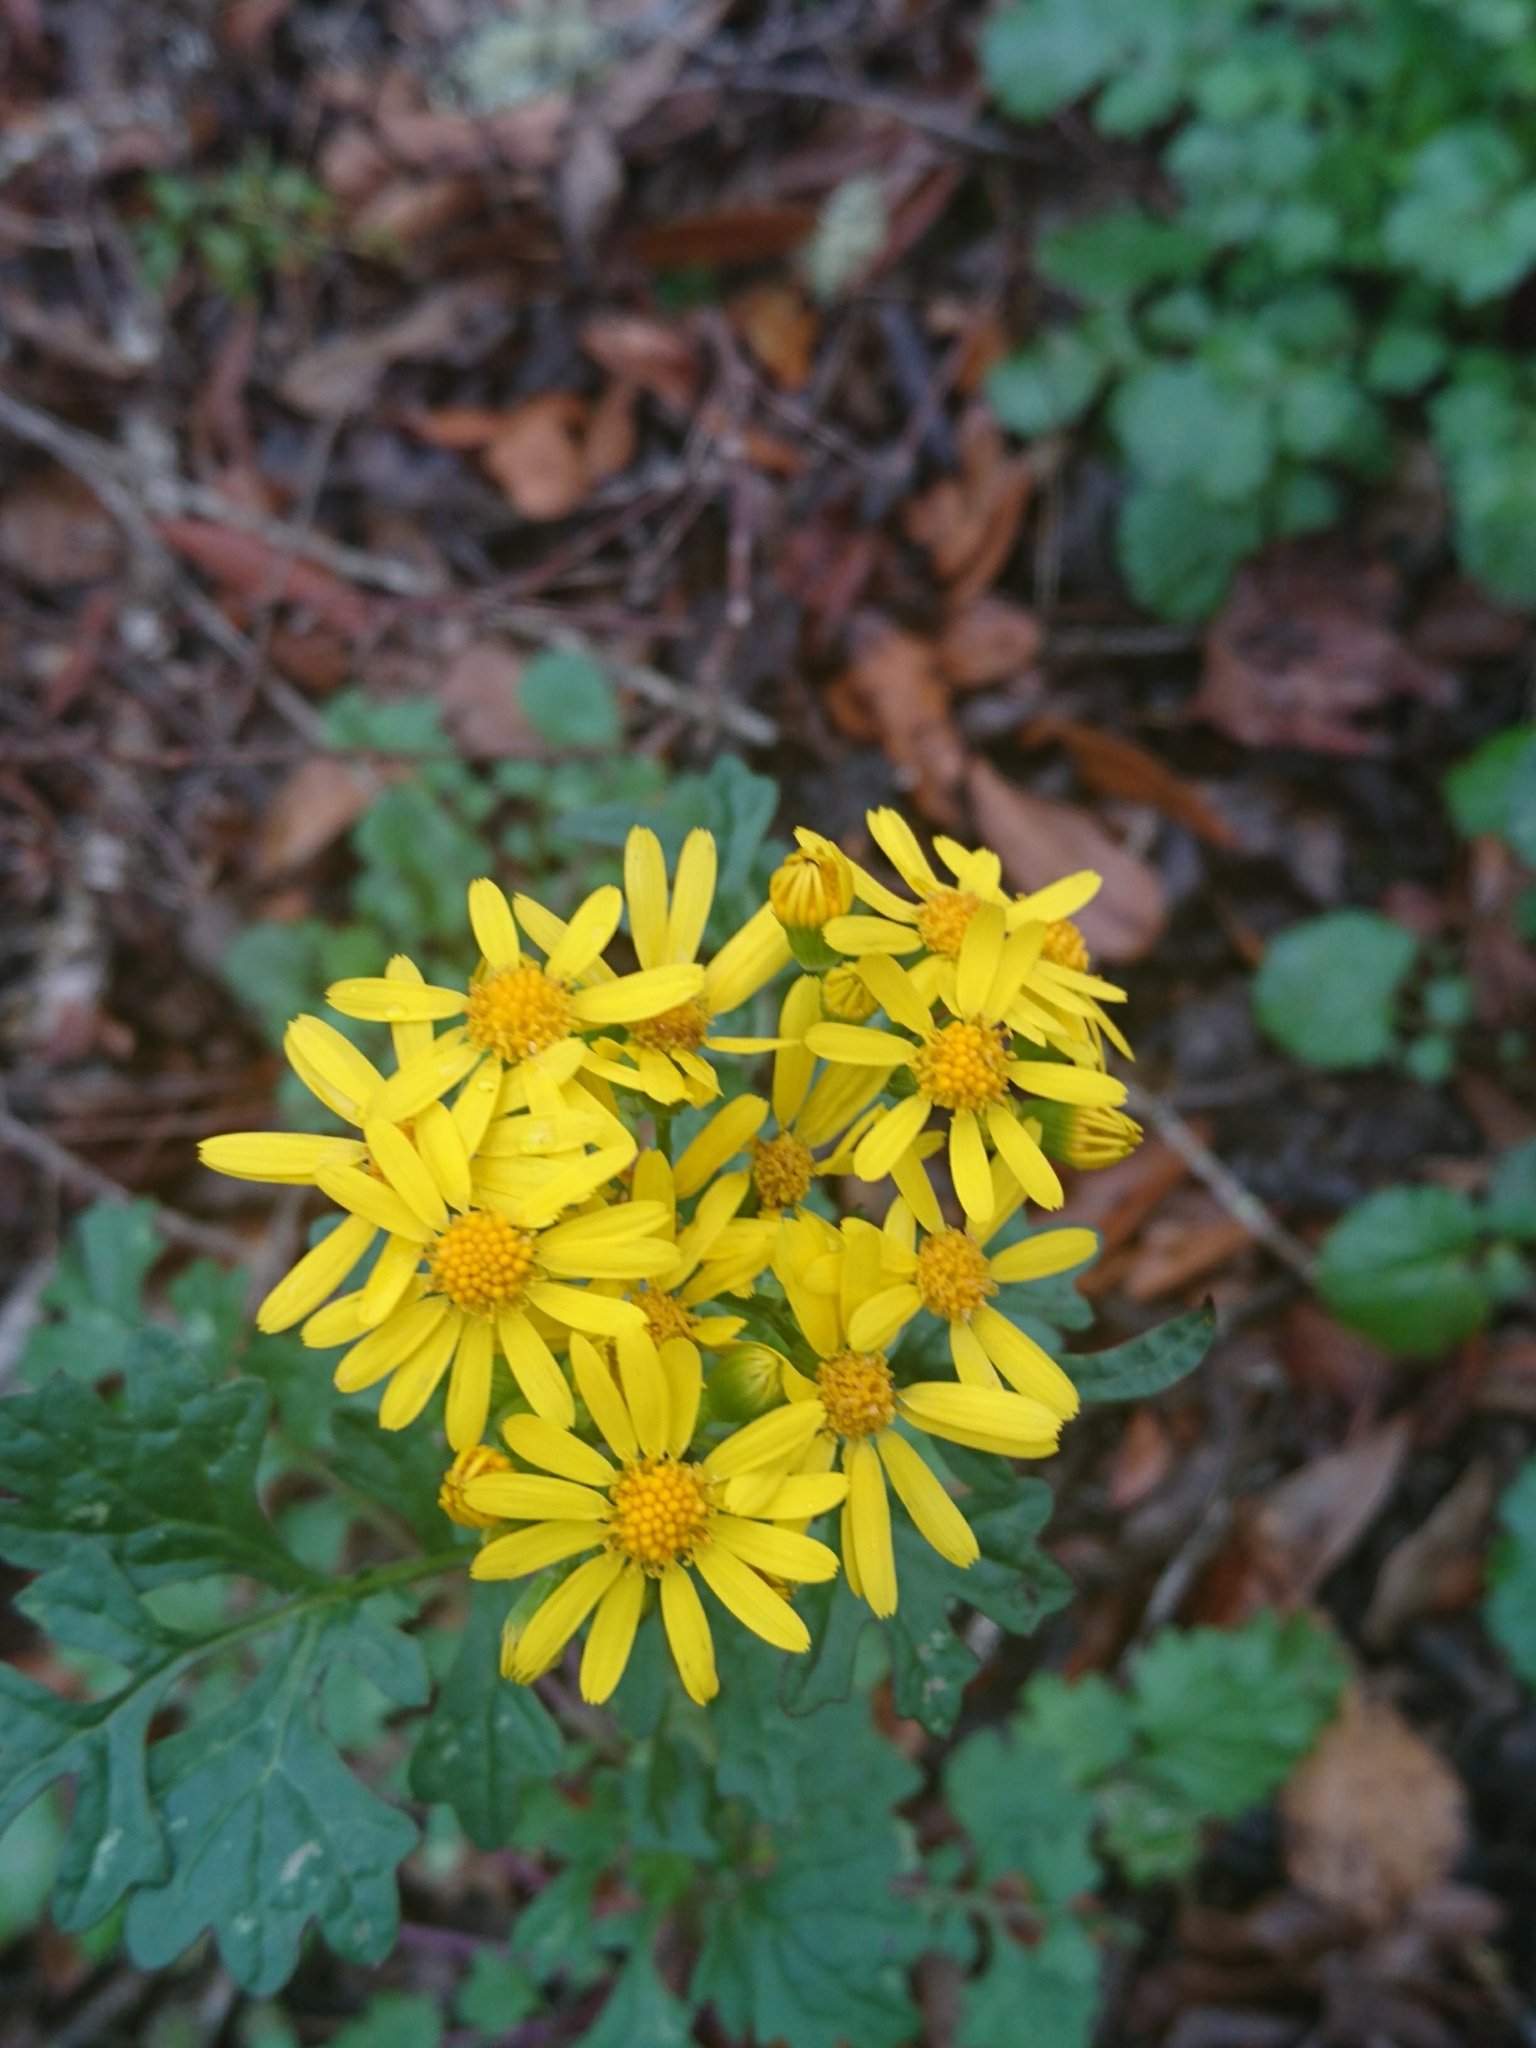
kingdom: Plantae
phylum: Tracheophyta
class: Magnoliopsida
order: Asterales
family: Asteraceae
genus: Packera
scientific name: Packera glabella
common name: Butterweed
